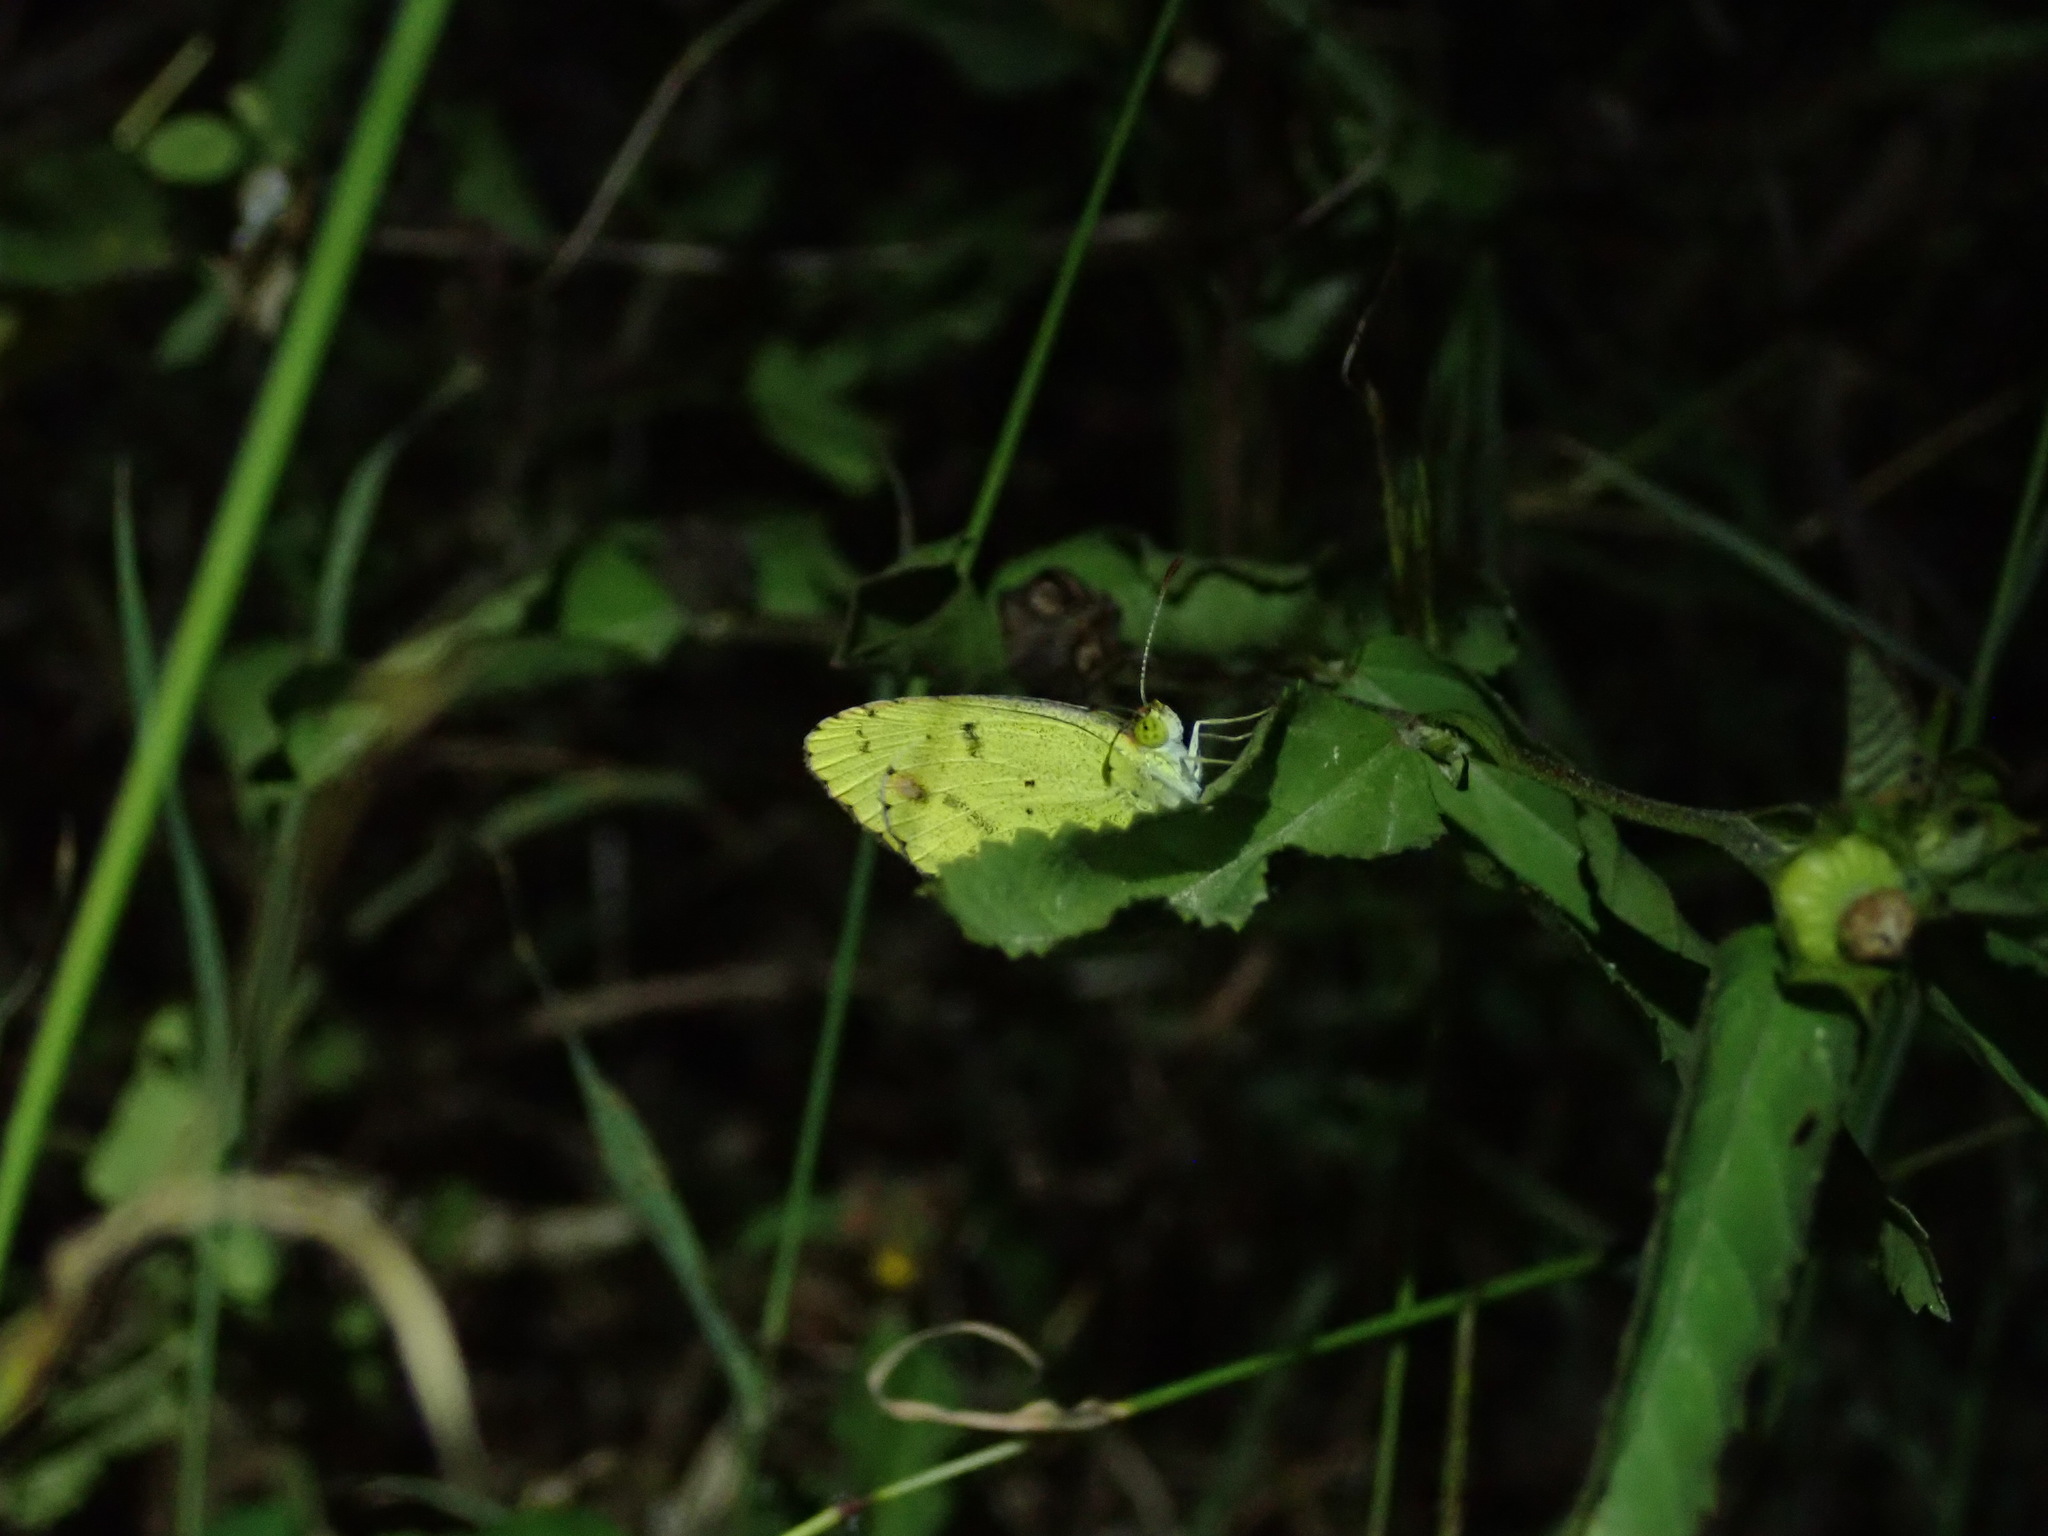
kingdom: Animalia
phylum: Arthropoda
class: Insecta
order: Lepidoptera
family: Pieridae
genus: Pyrisitia
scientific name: Pyrisitia lisa
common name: Little yellow
